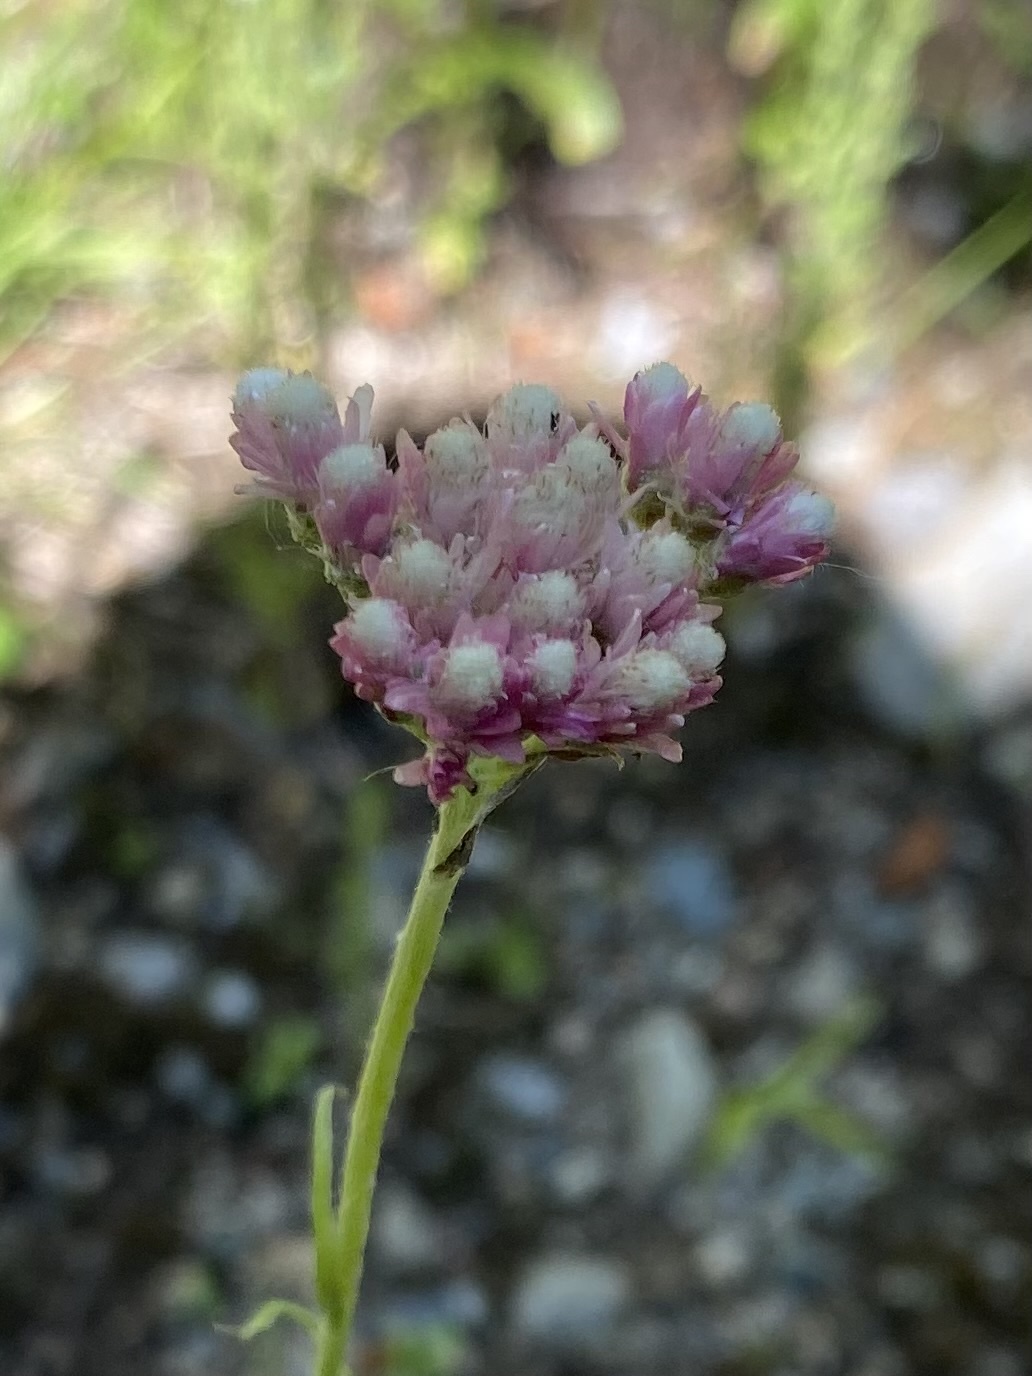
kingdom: Plantae
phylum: Tracheophyta
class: Magnoliopsida
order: Asterales
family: Asteraceae
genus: Antennaria
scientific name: Antennaria rosea
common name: Rosy pussytoes
